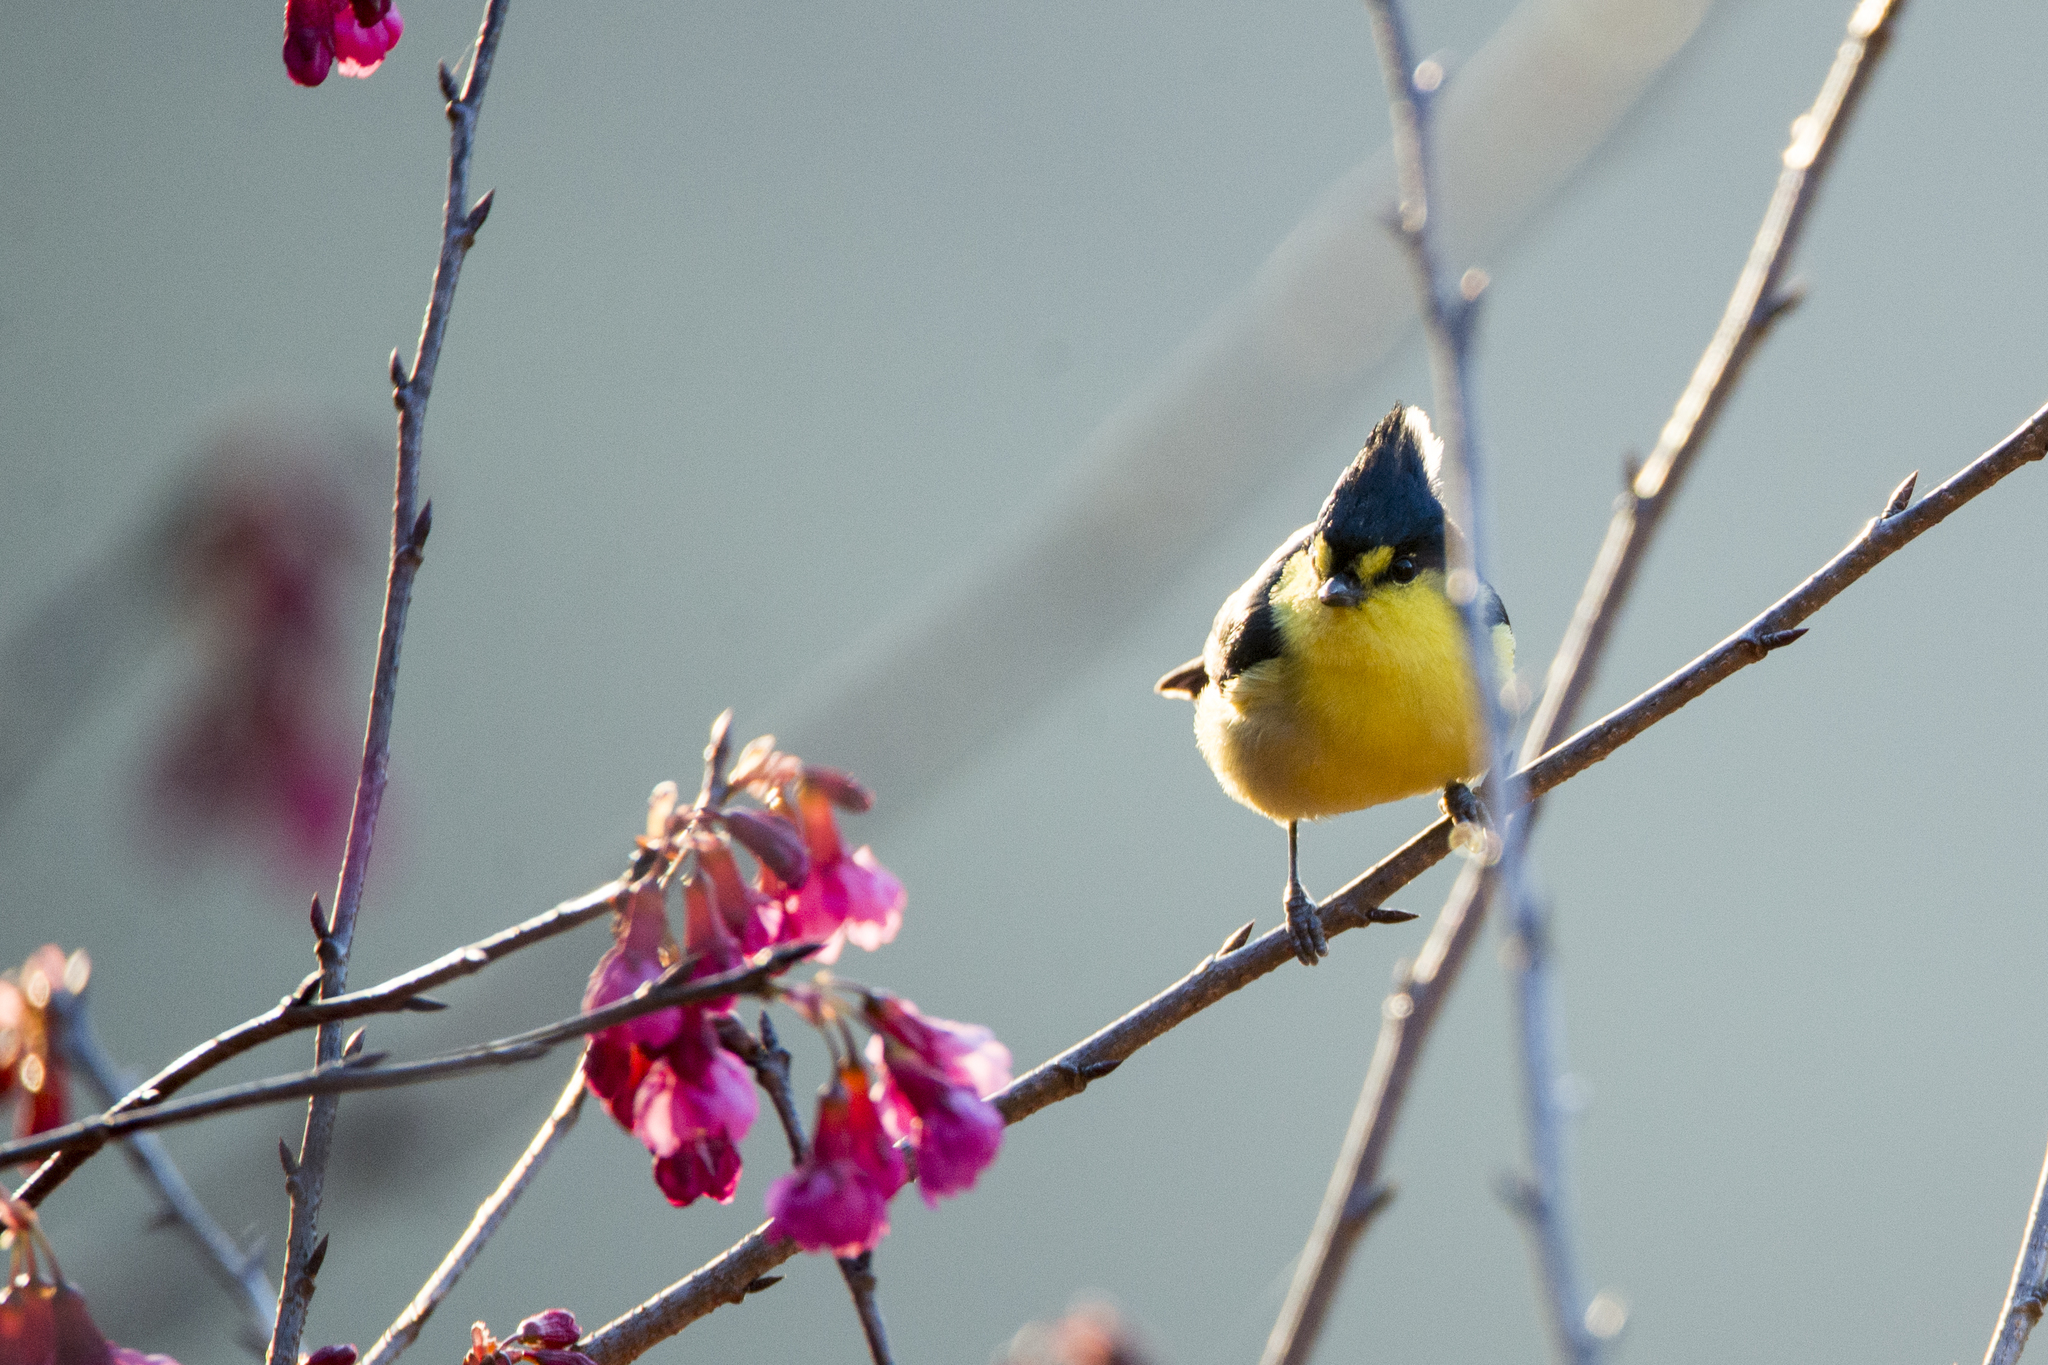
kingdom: Animalia
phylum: Chordata
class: Aves
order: Passeriformes
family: Paridae
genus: Parus
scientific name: Parus holsti
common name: Yellow tit
